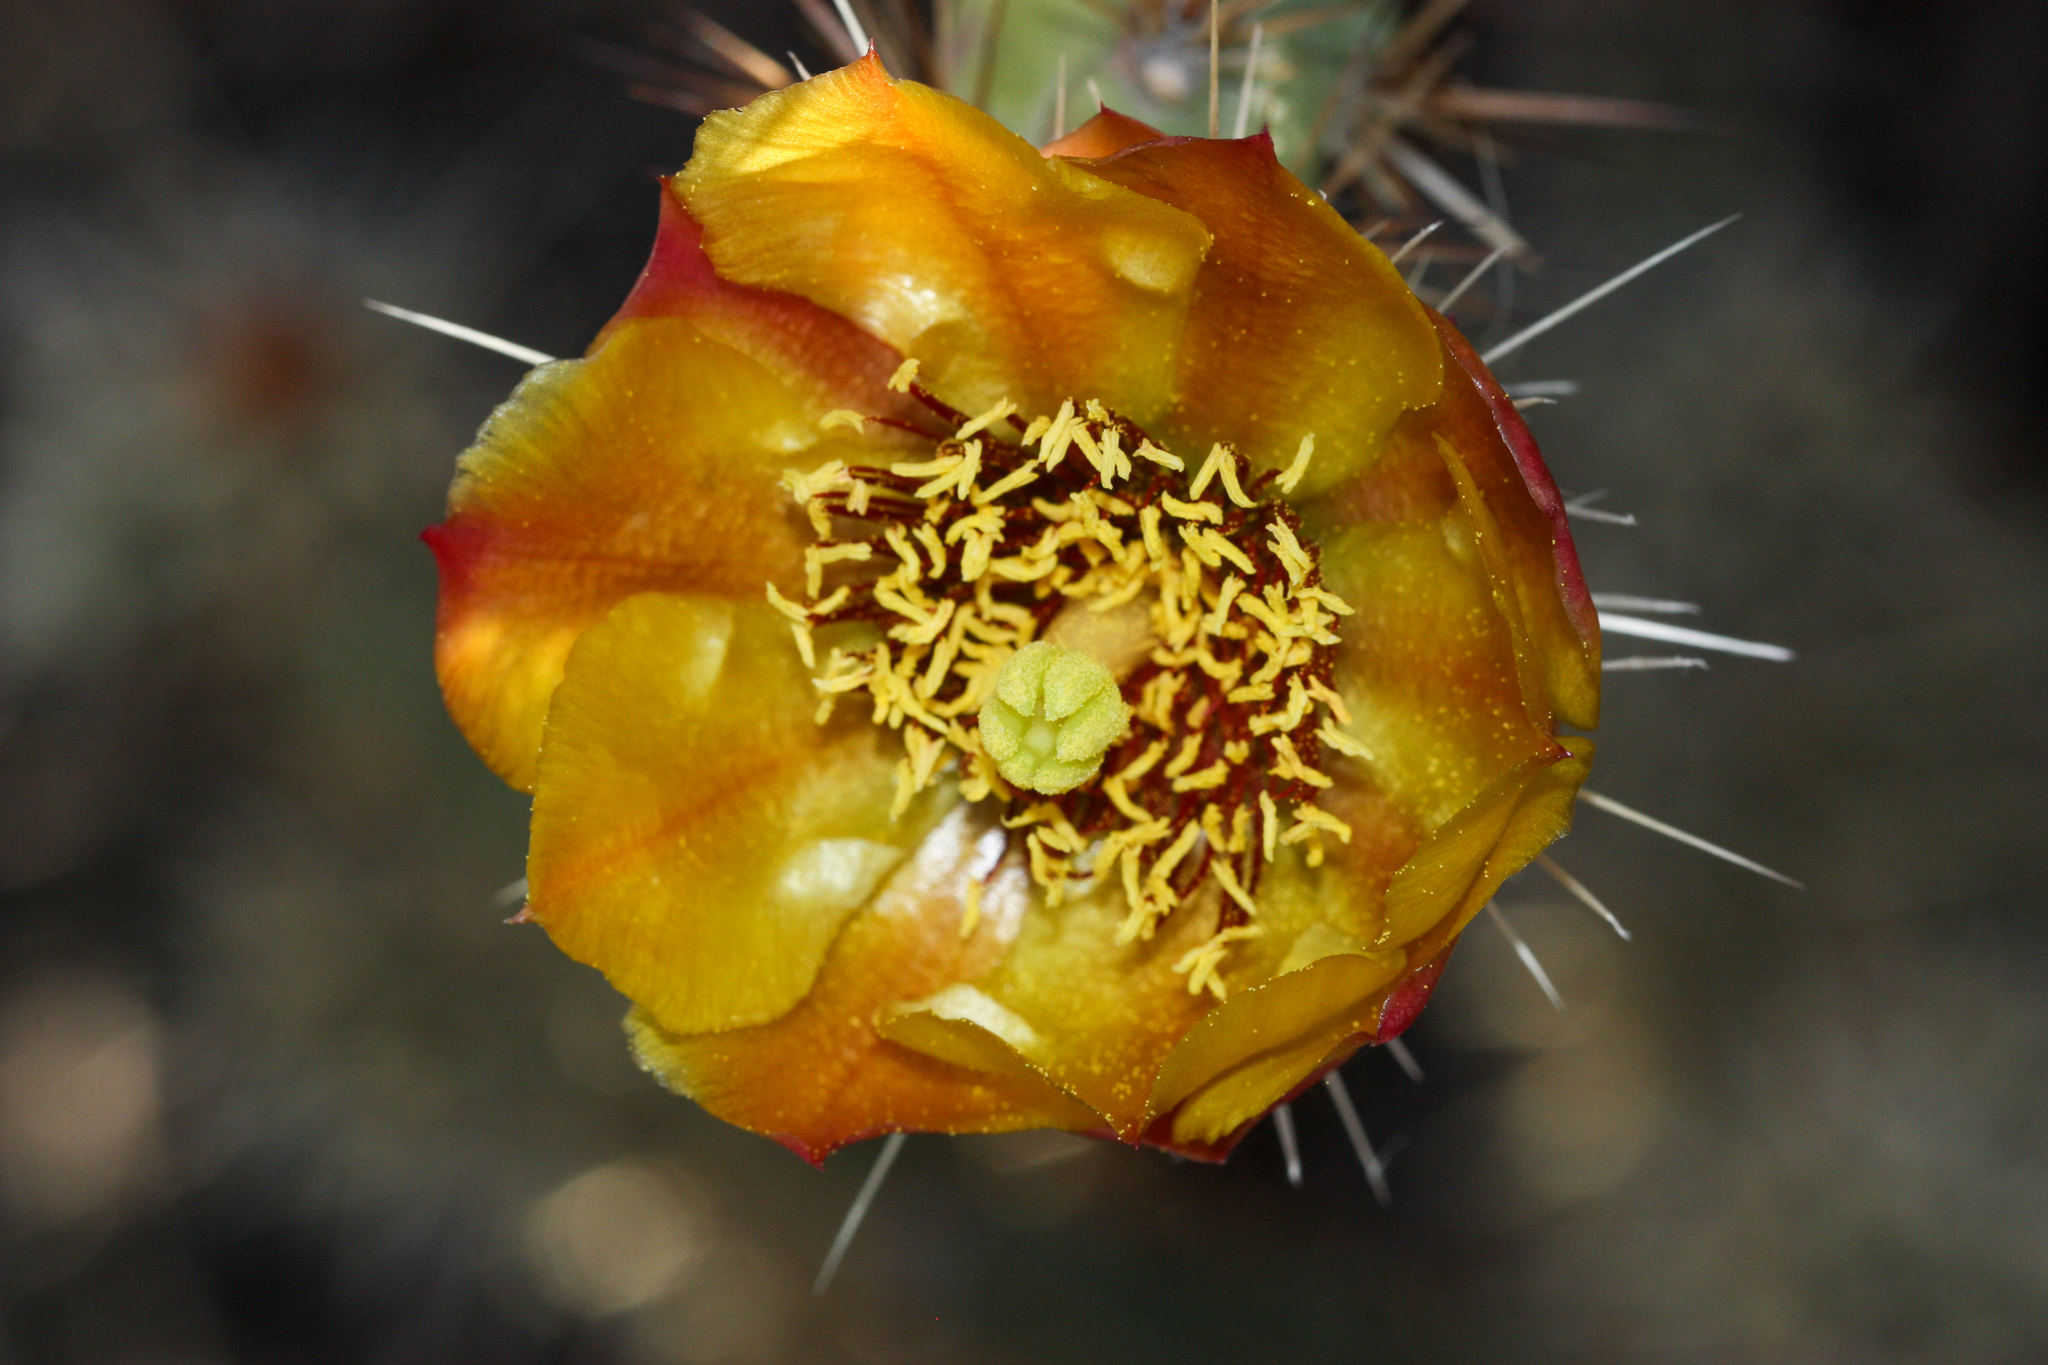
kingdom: Plantae
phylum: Tracheophyta
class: Magnoliopsida
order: Caryophyllales
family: Cactaceae
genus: Cylindropuntia
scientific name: Cylindropuntia acanthocarpa
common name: Buckhorn cholla
